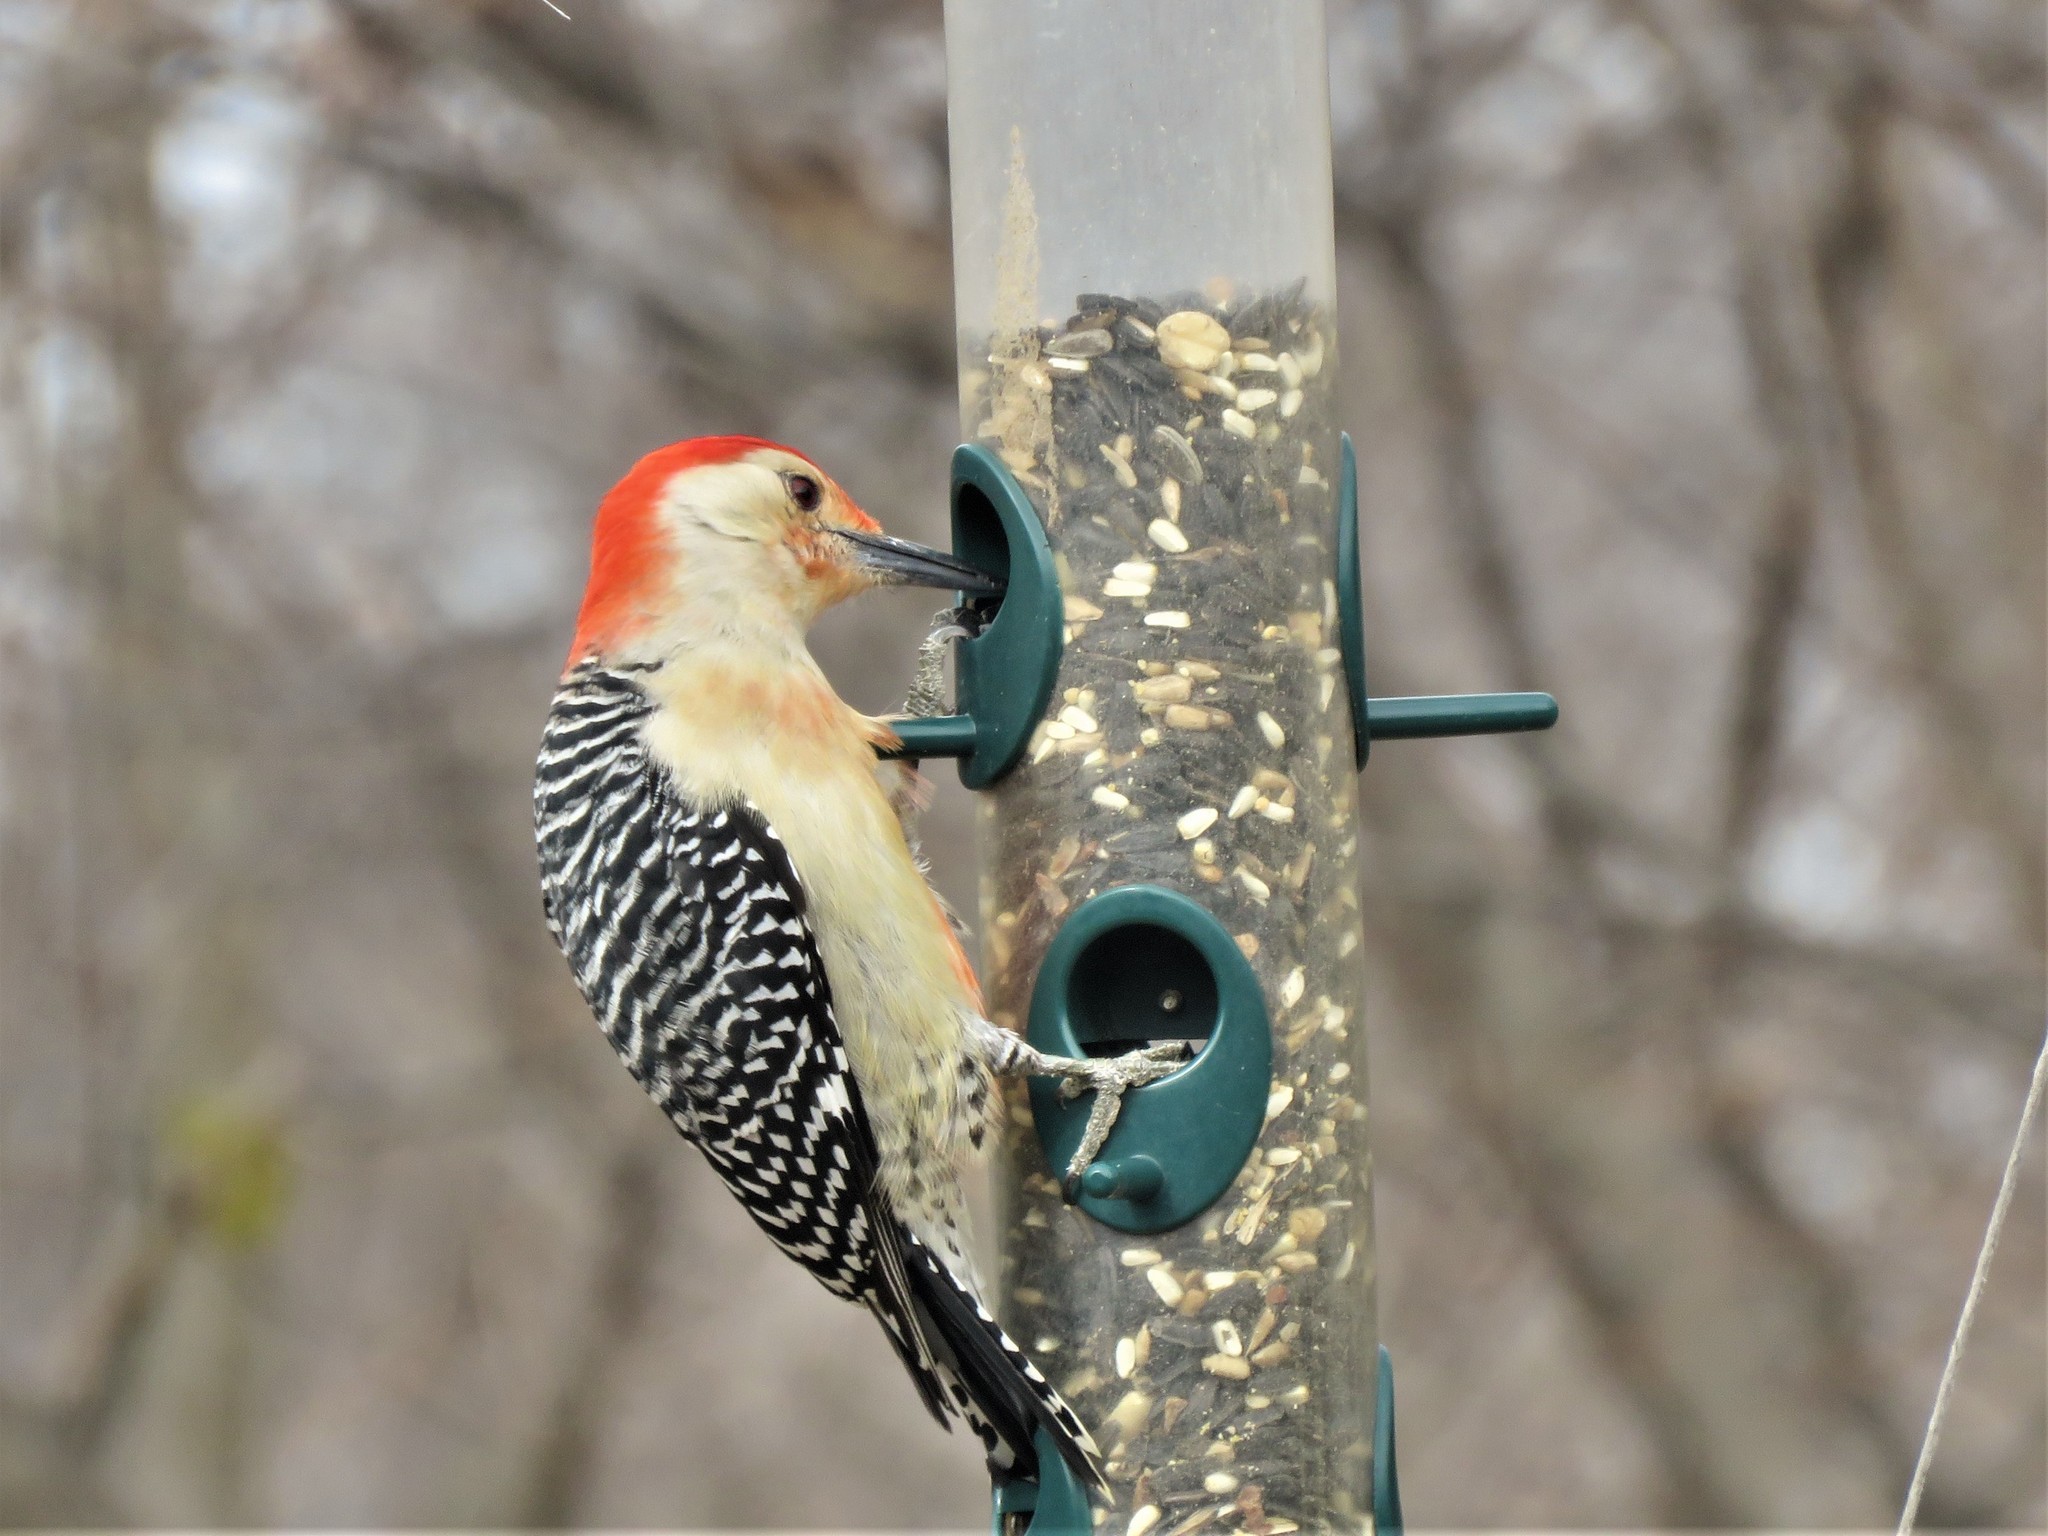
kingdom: Animalia
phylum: Chordata
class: Aves
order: Piciformes
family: Picidae
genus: Melanerpes
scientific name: Melanerpes carolinus
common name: Red-bellied woodpecker
